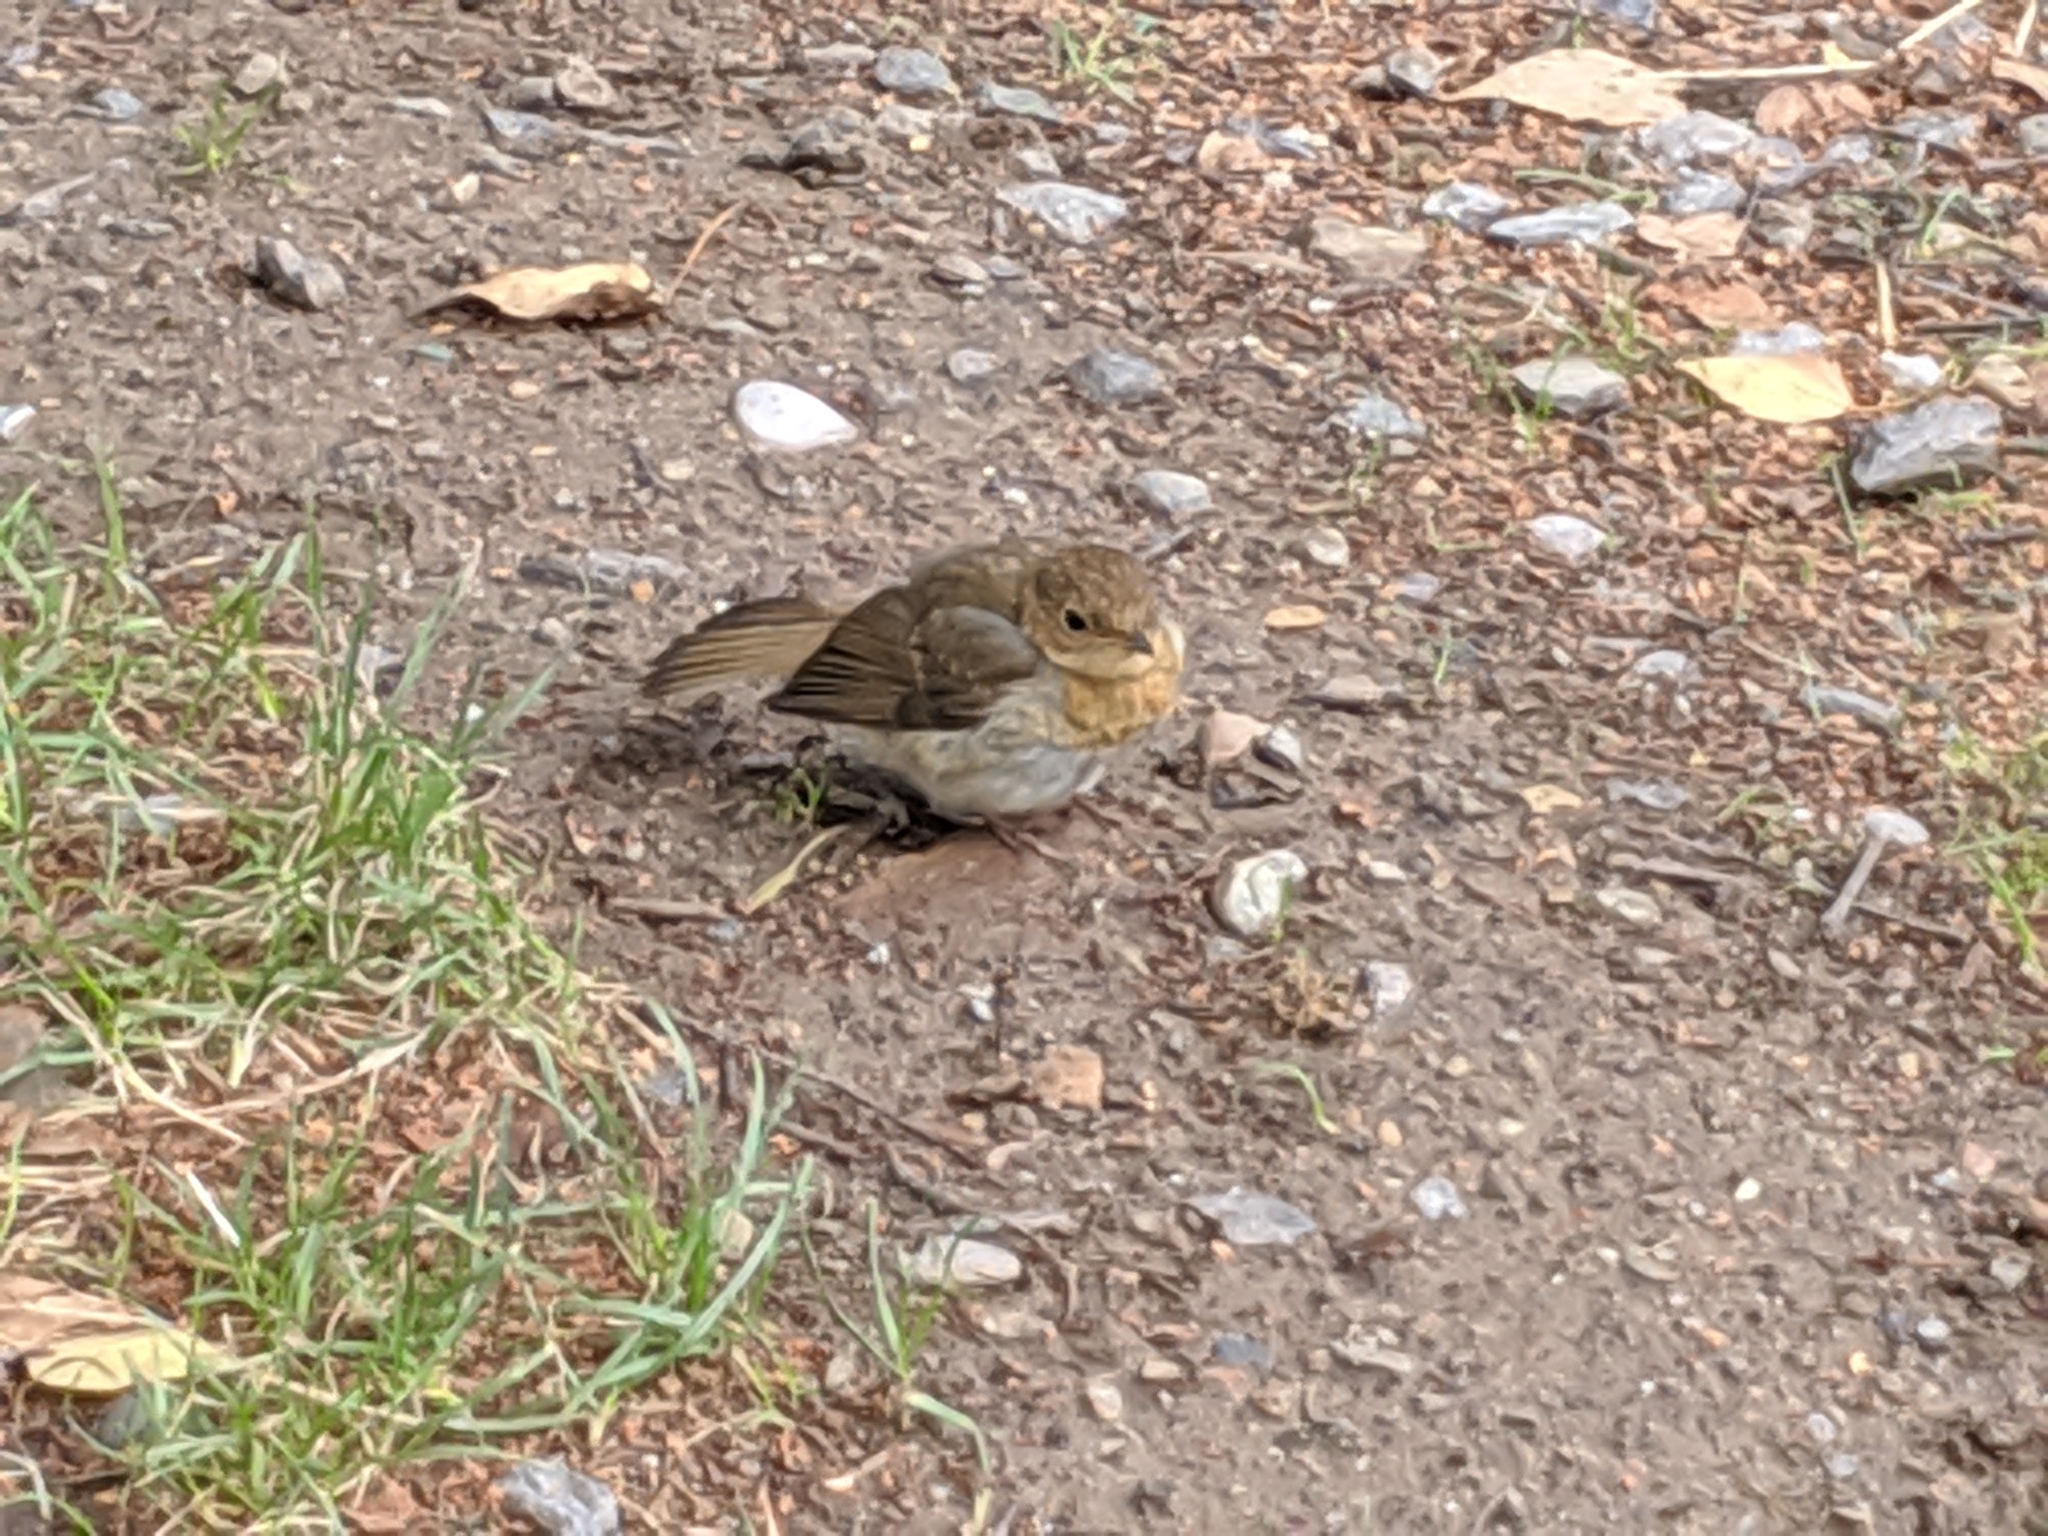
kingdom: Animalia
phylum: Chordata
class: Aves
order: Passeriformes
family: Muscicapidae
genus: Erithacus
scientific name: Erithacus rubecula
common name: European robin
